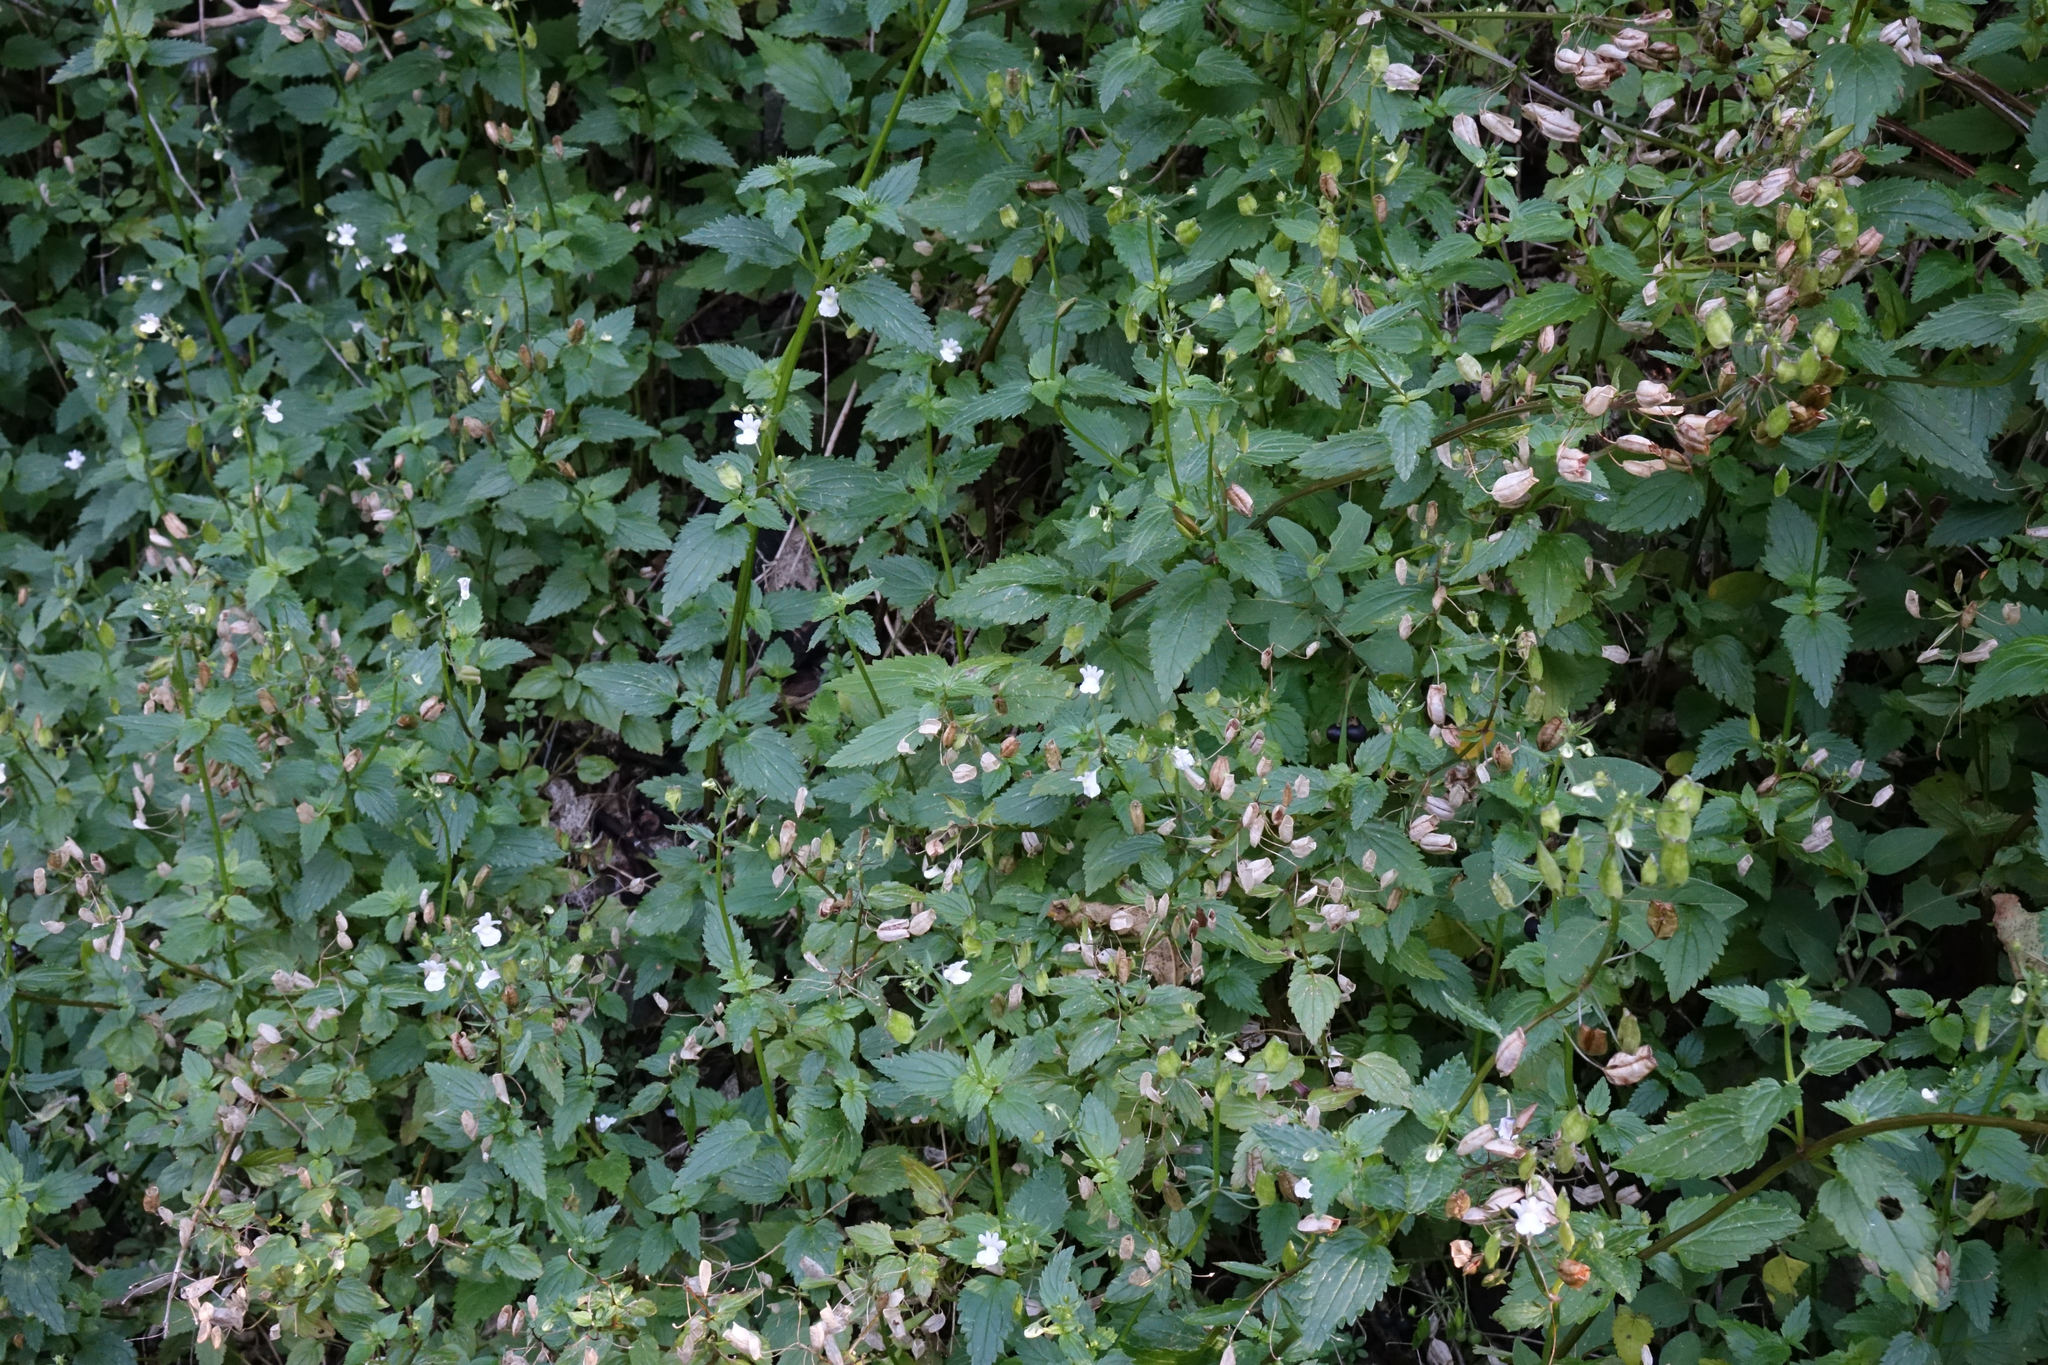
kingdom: Plantae
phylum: Tracheophyta
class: Magnoliopsida
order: Lamiales
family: Scrophulariaceae
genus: Nemesia
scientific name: Nemesia floribunda
